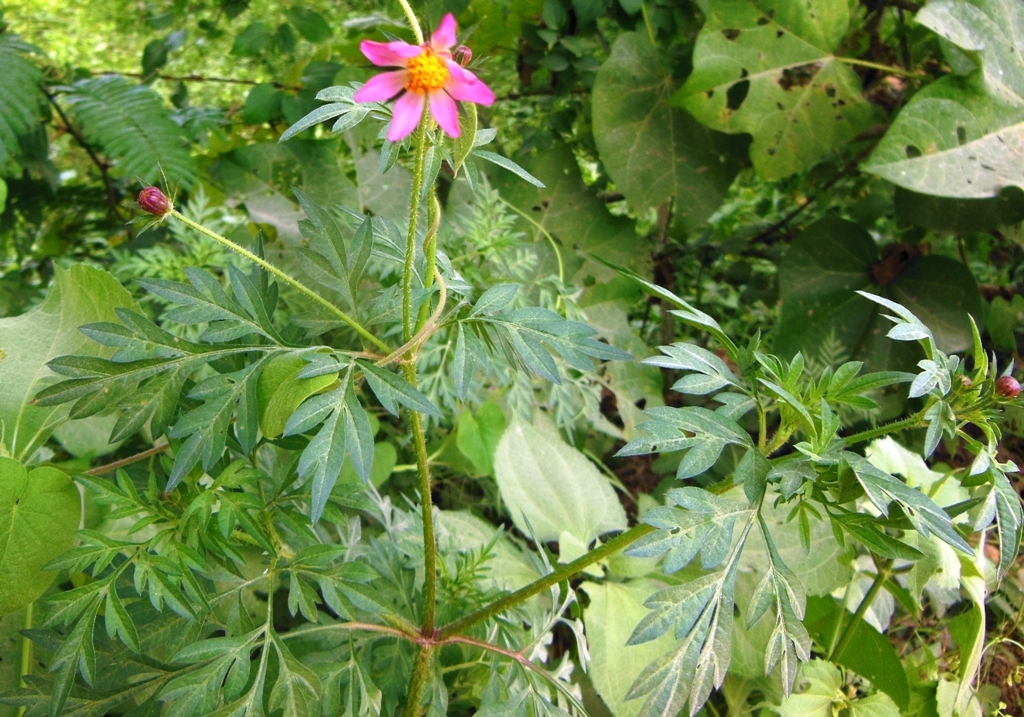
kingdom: Plantae
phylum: Tracheophyta
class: Magnoliopsida
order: Asterales
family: Asteraceae
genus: Cosmos
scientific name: Cosmos caudatus
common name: Wild cosmos
